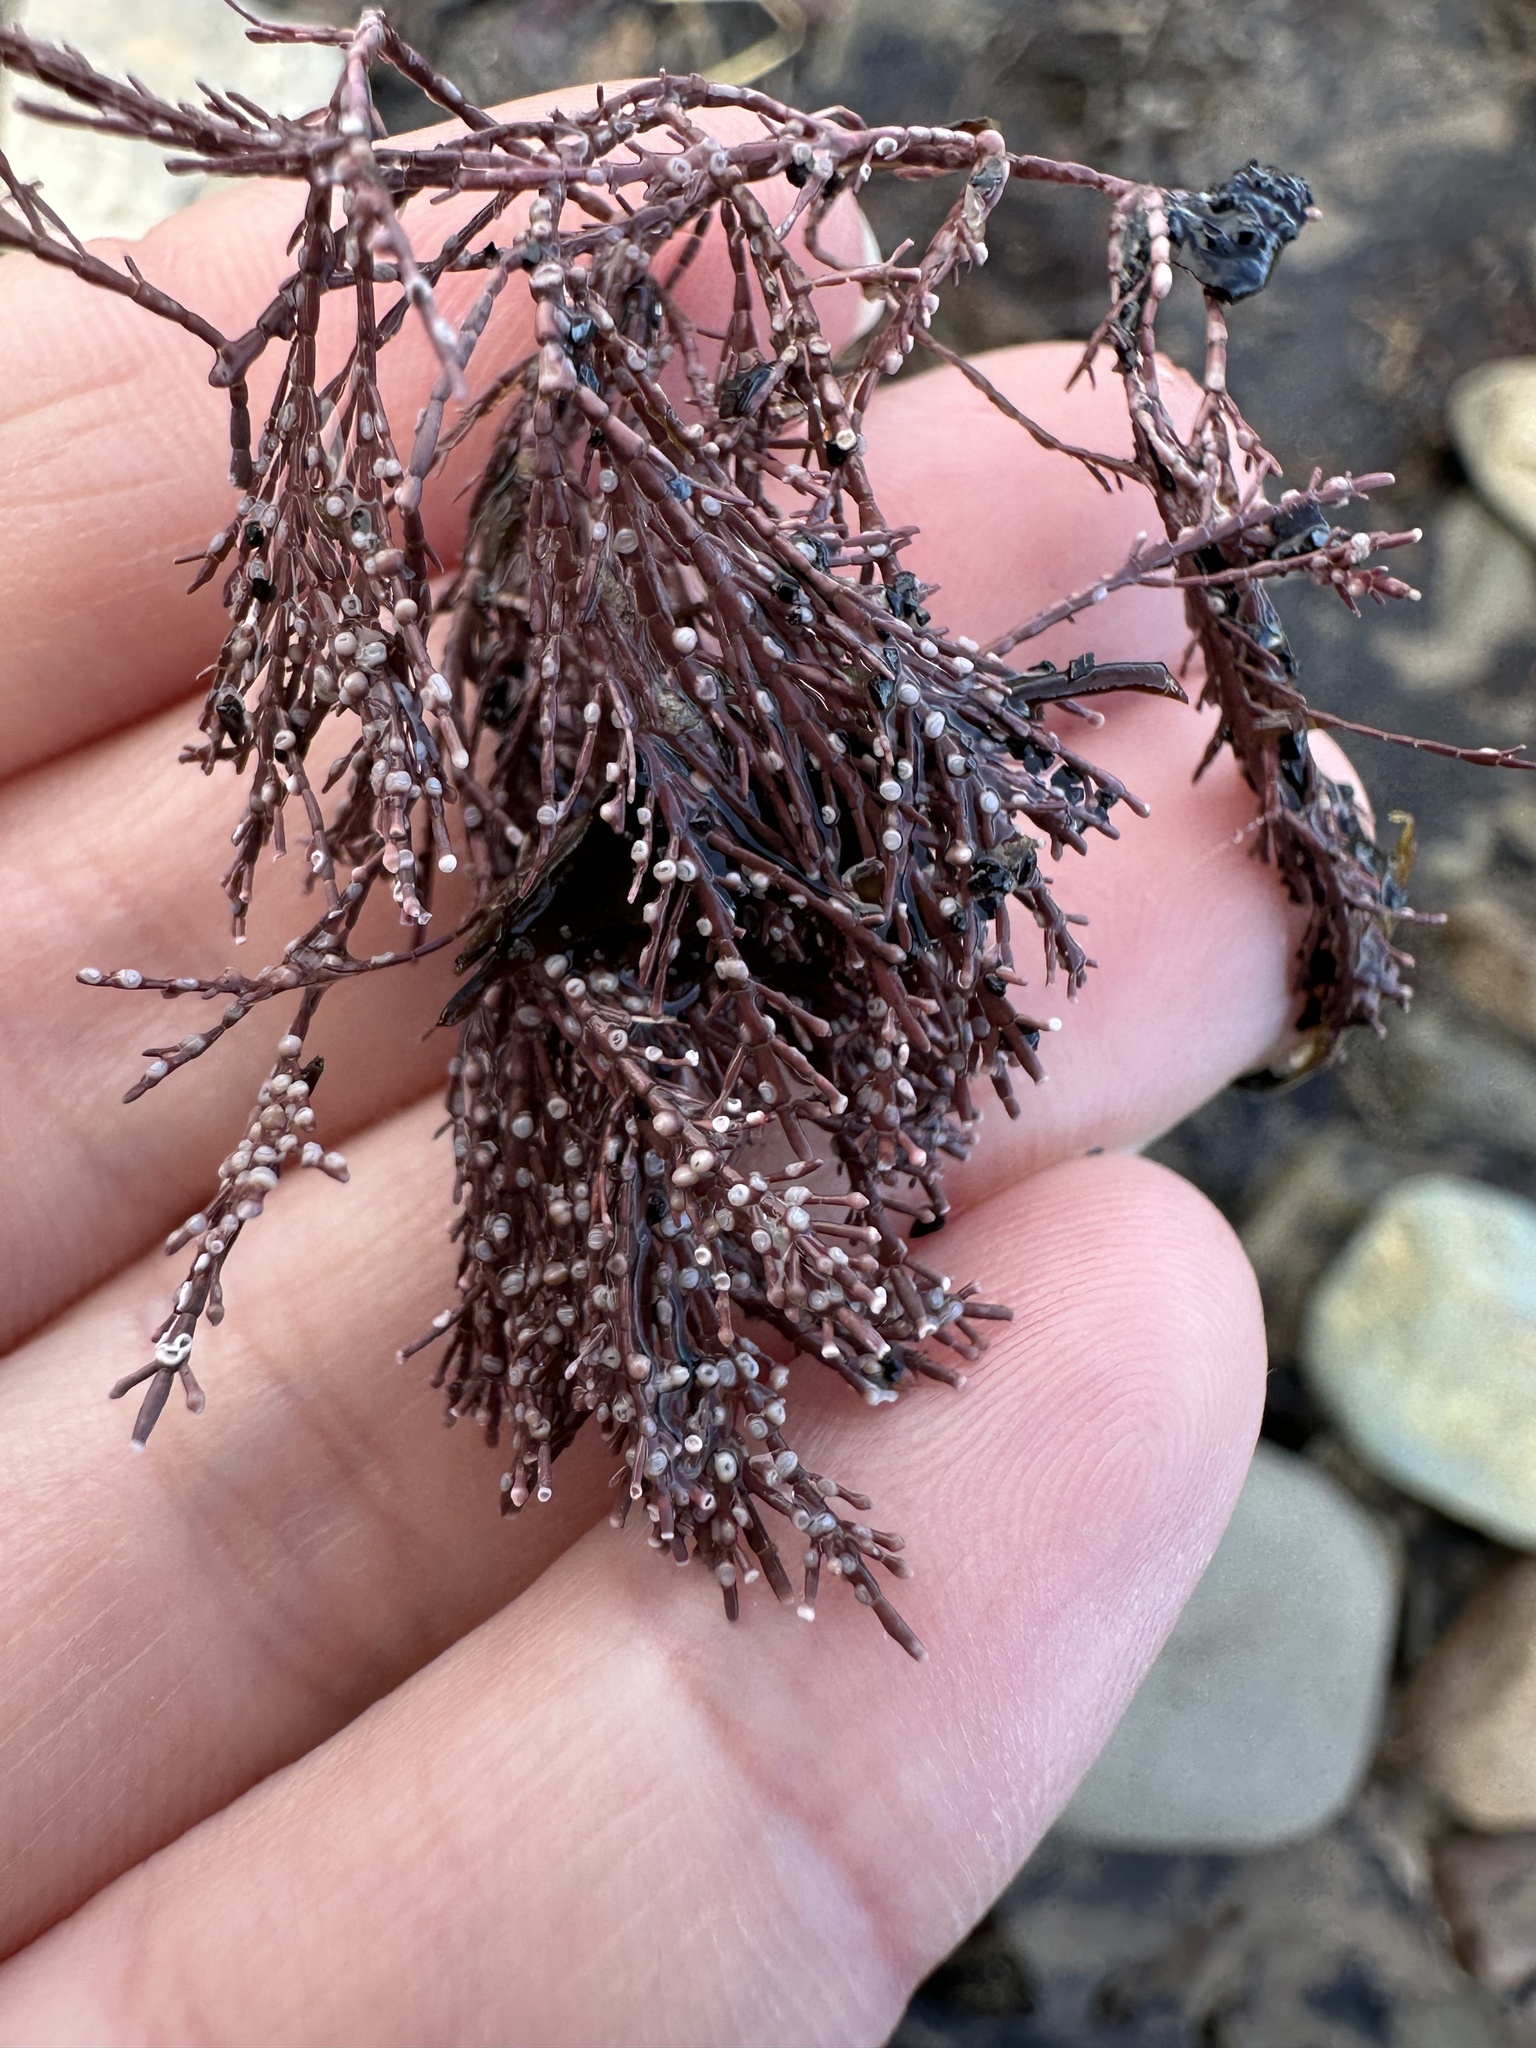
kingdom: Plantae
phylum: Rhodophyta
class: Florideophyceae
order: Corallinales
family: Corallinaceae
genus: Corallina
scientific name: Corallina officinalis
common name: Coral weed
